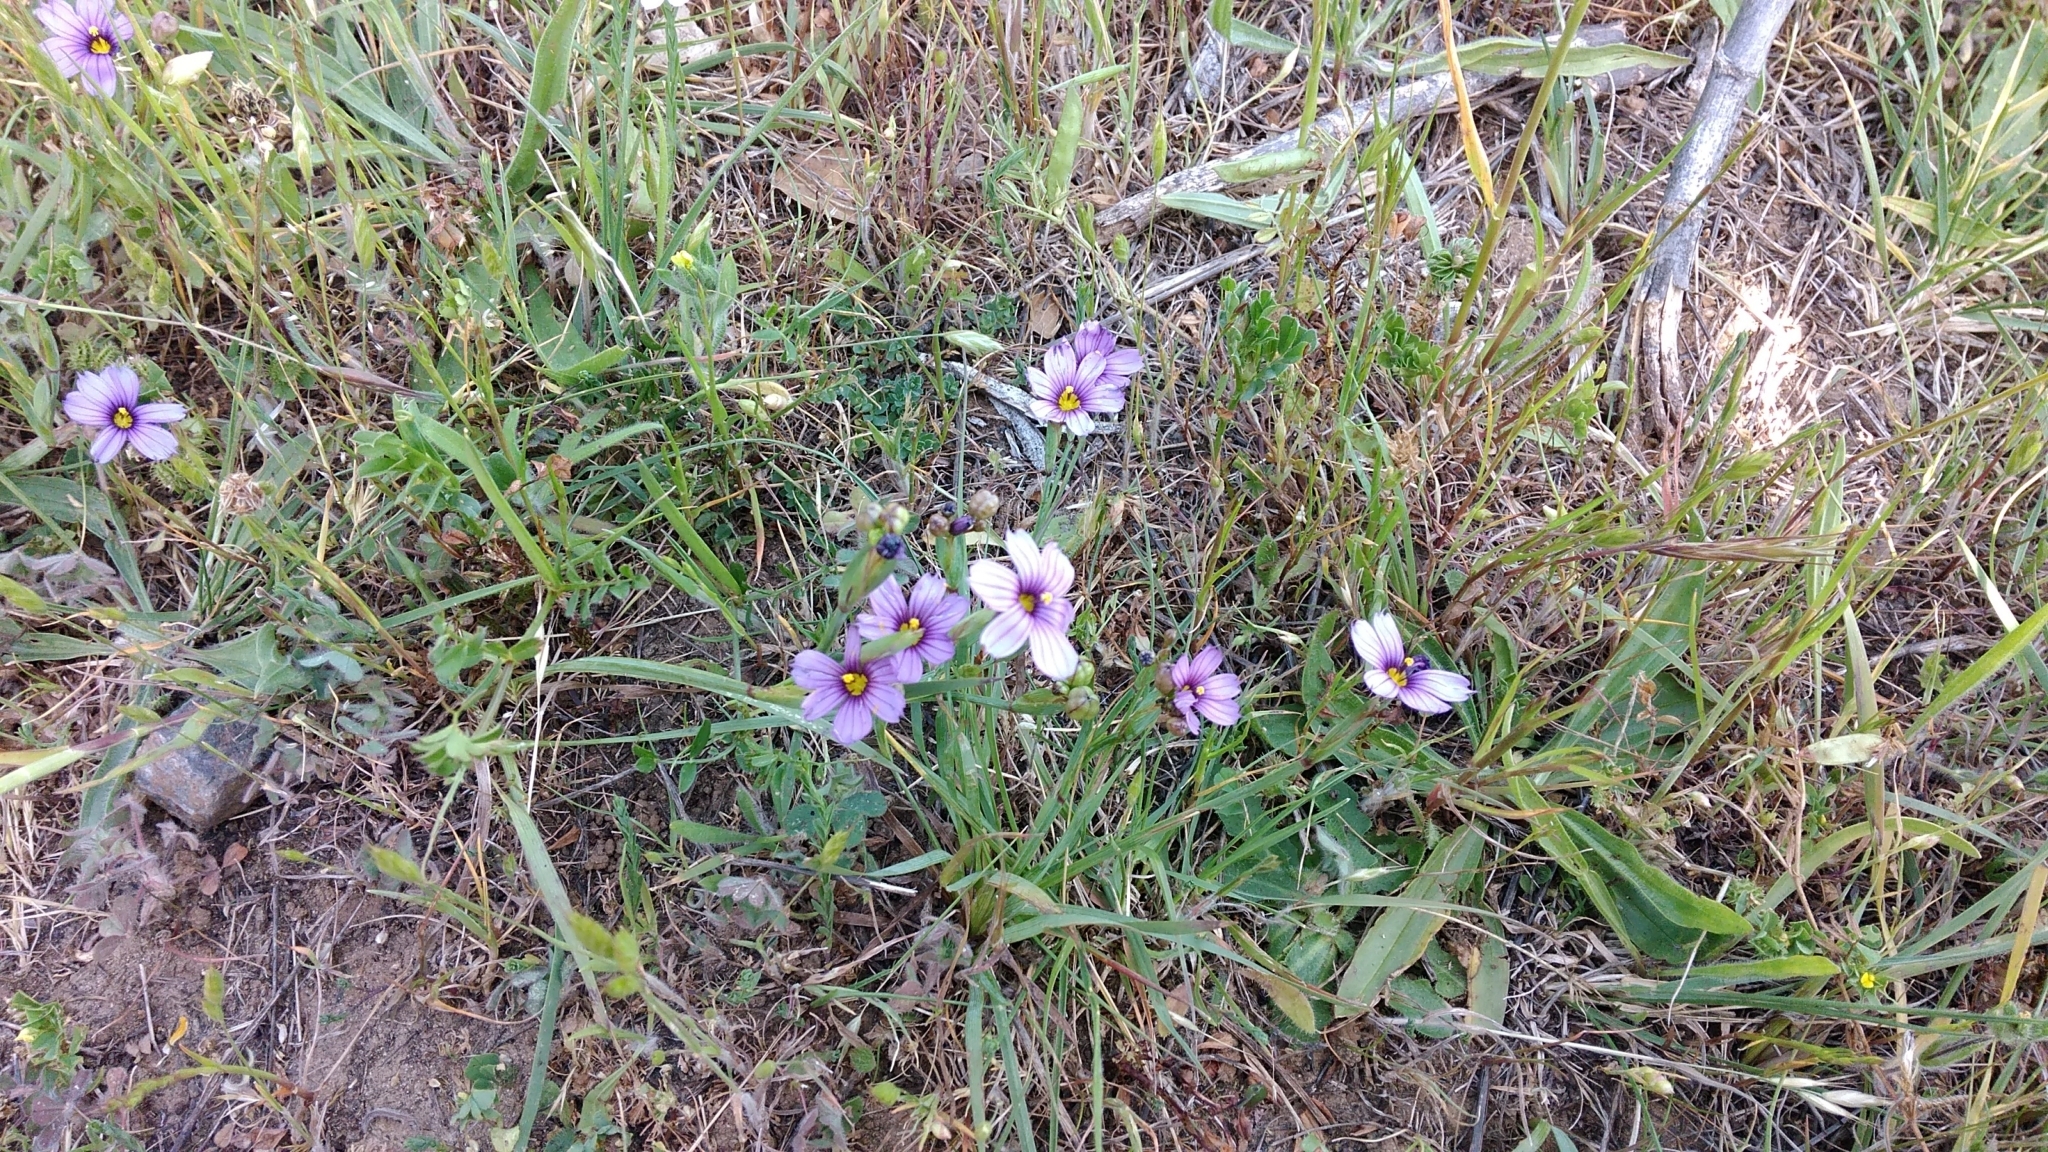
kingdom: Plantae
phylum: Tracheophyta
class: Liliopsida
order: Asparagales
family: Iridaceae
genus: Sisyrinchium
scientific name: Sisyrinchium bellum
